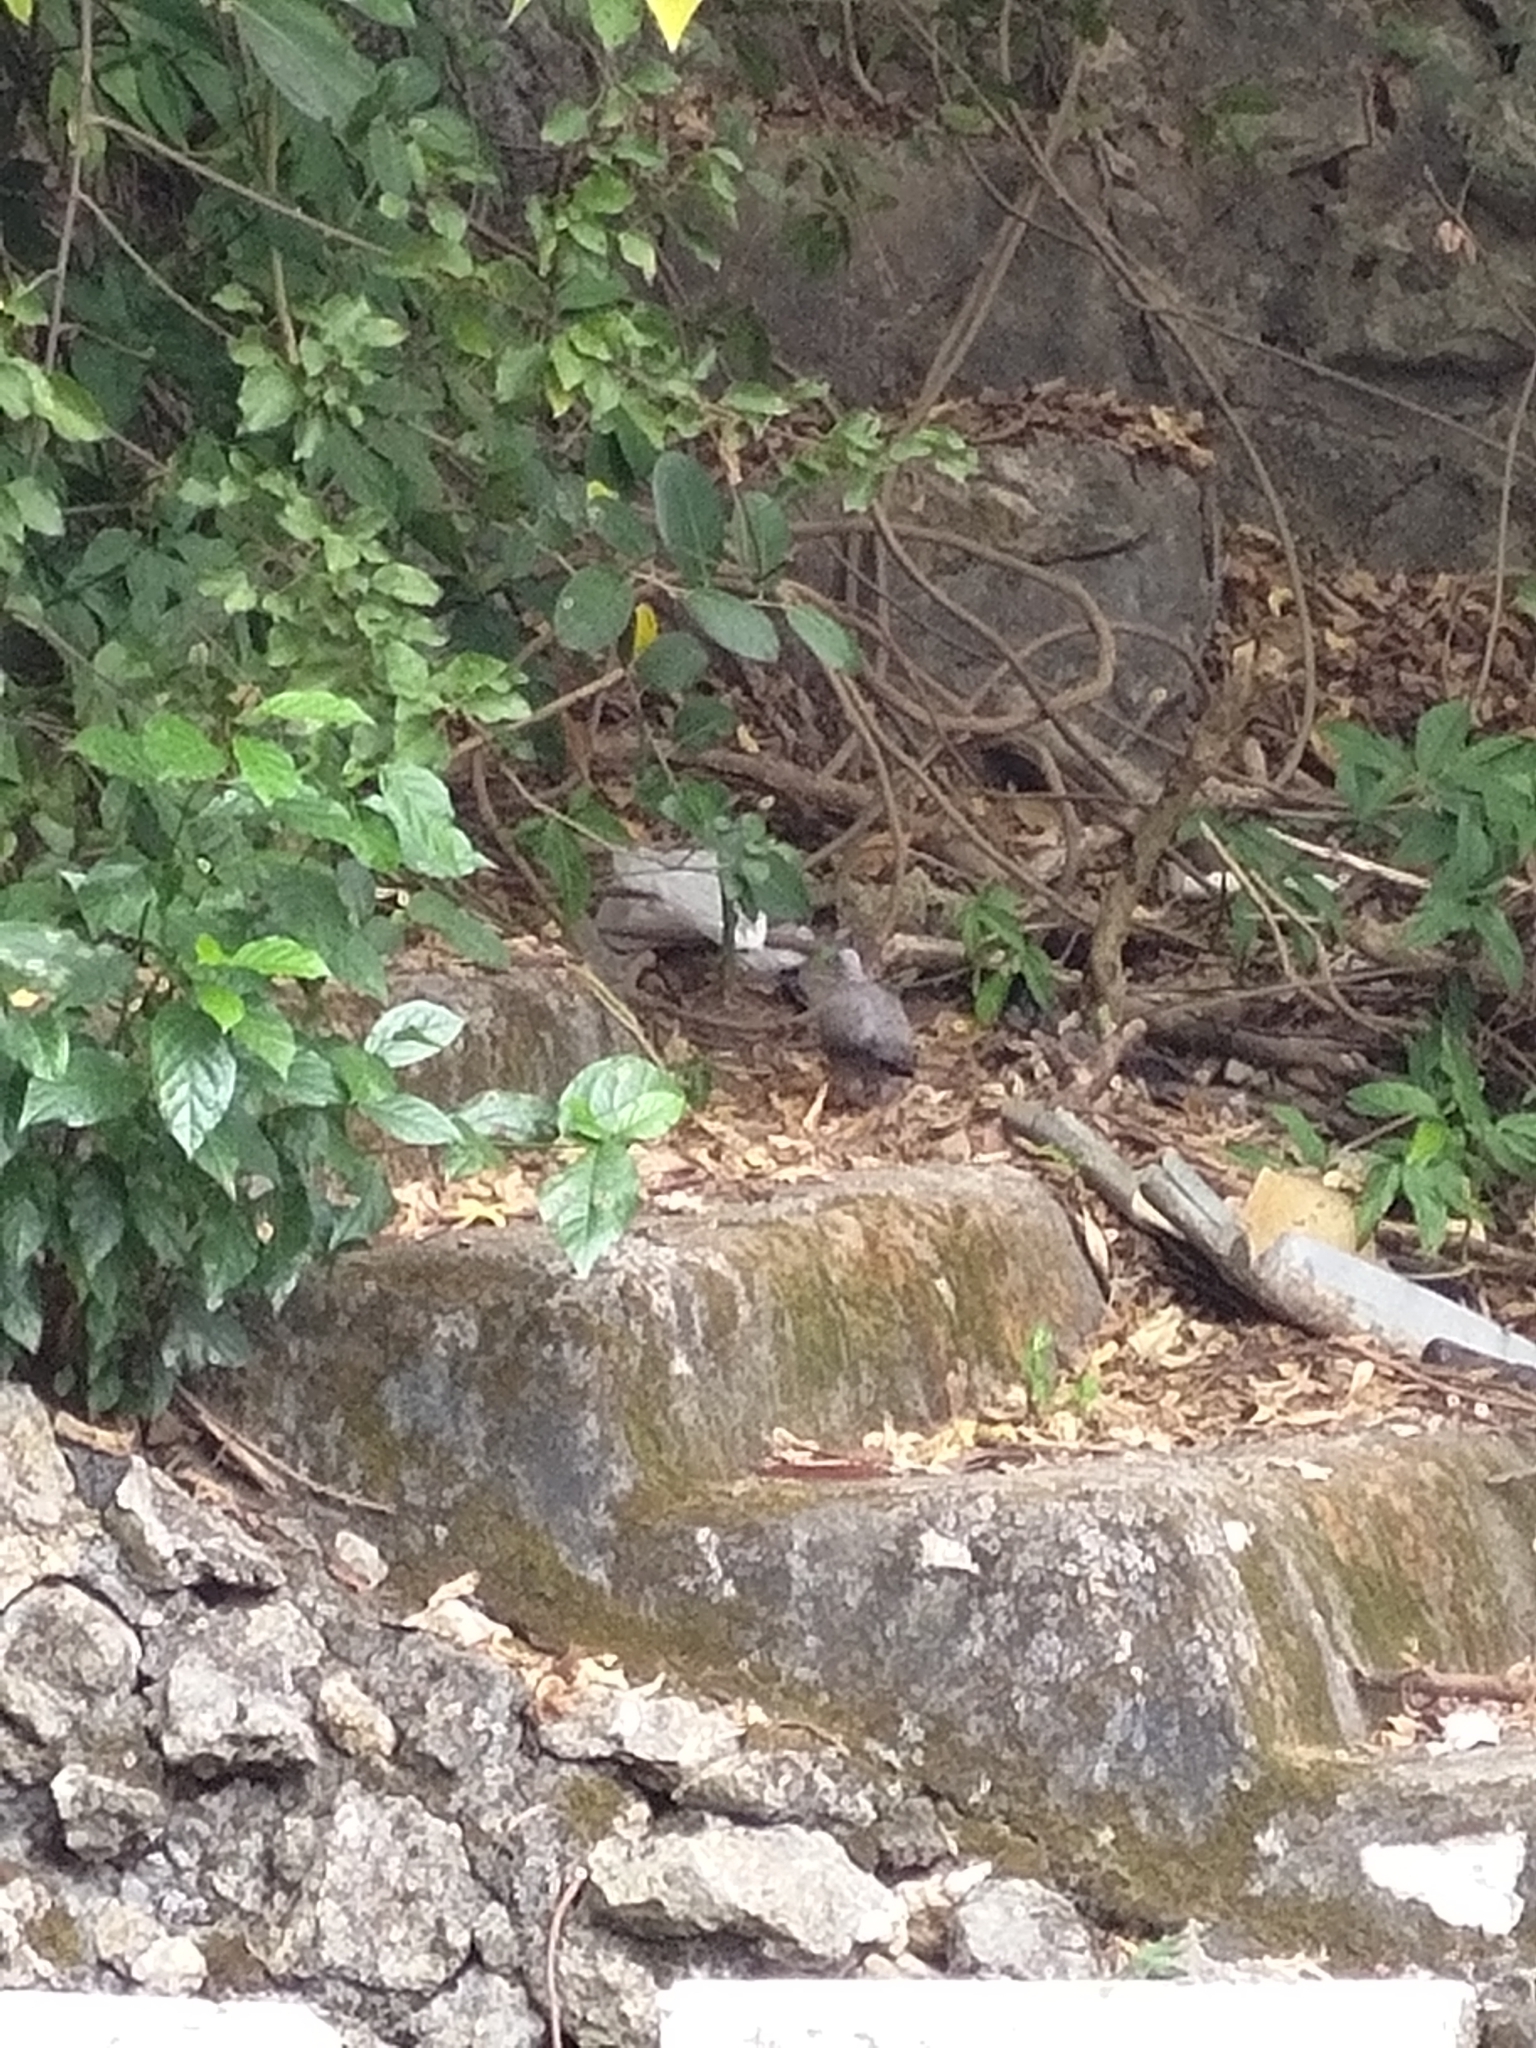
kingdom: Animalia
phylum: Chordata
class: Aves
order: Columbiformes
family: Columbidae
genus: Spilopelia
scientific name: Spilopelia chinensis
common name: Spotted dove
